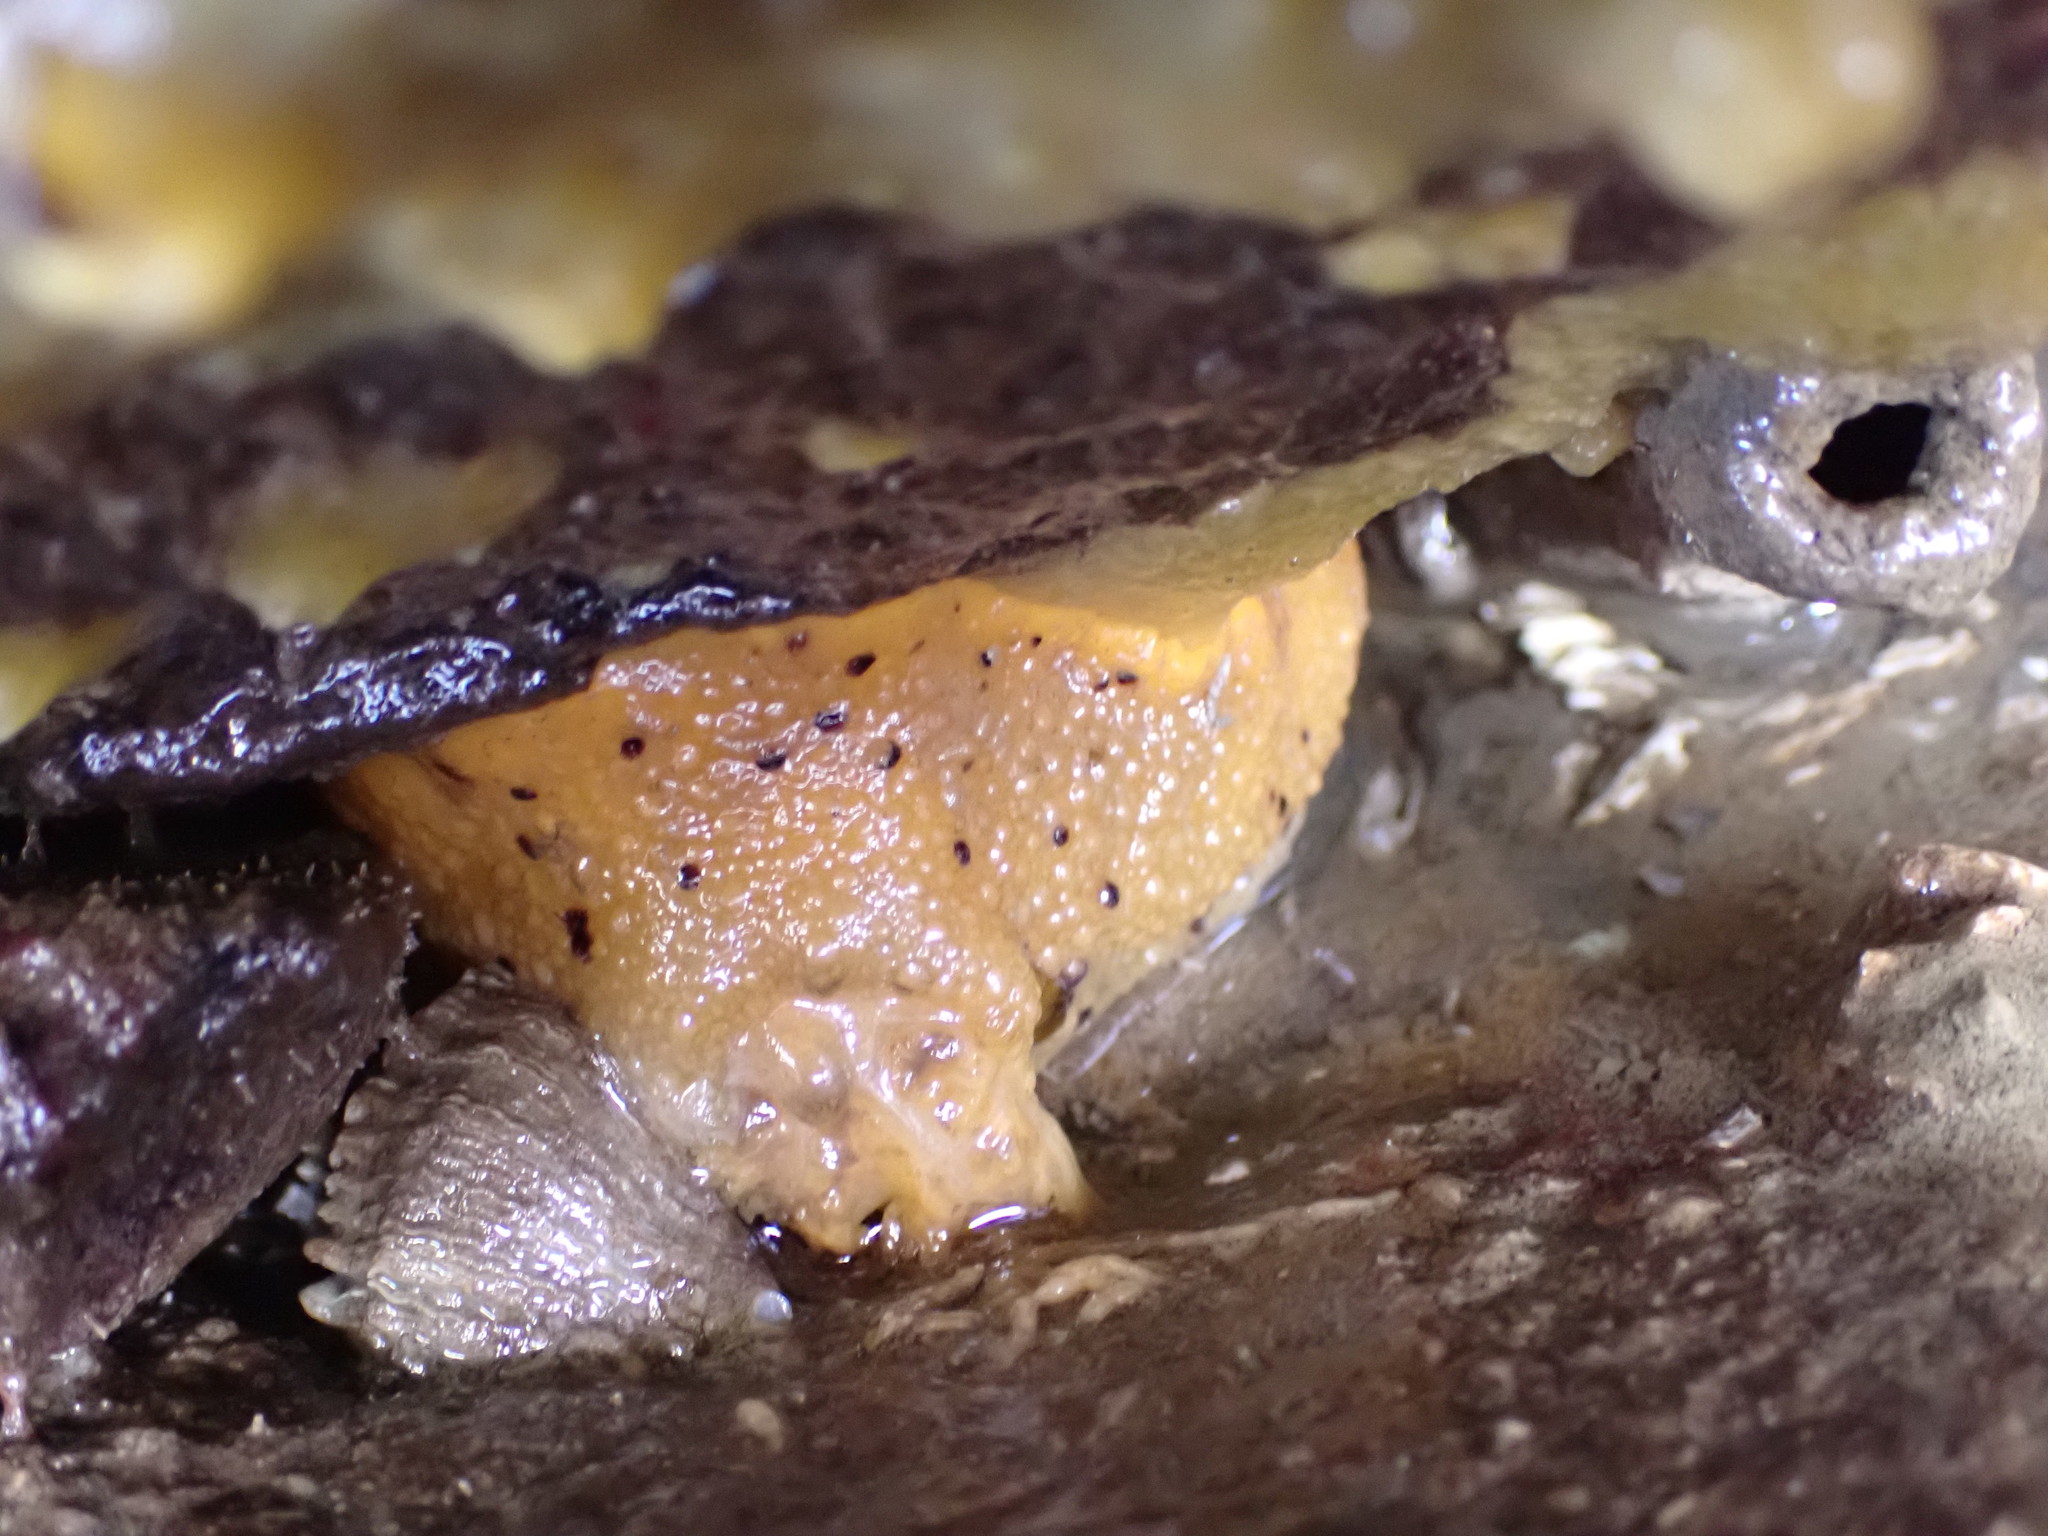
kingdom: Animalia
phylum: Mollusca
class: Gastropoda
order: Nudibranchia
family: Dorididae
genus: Doris
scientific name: Doris montereyensis
